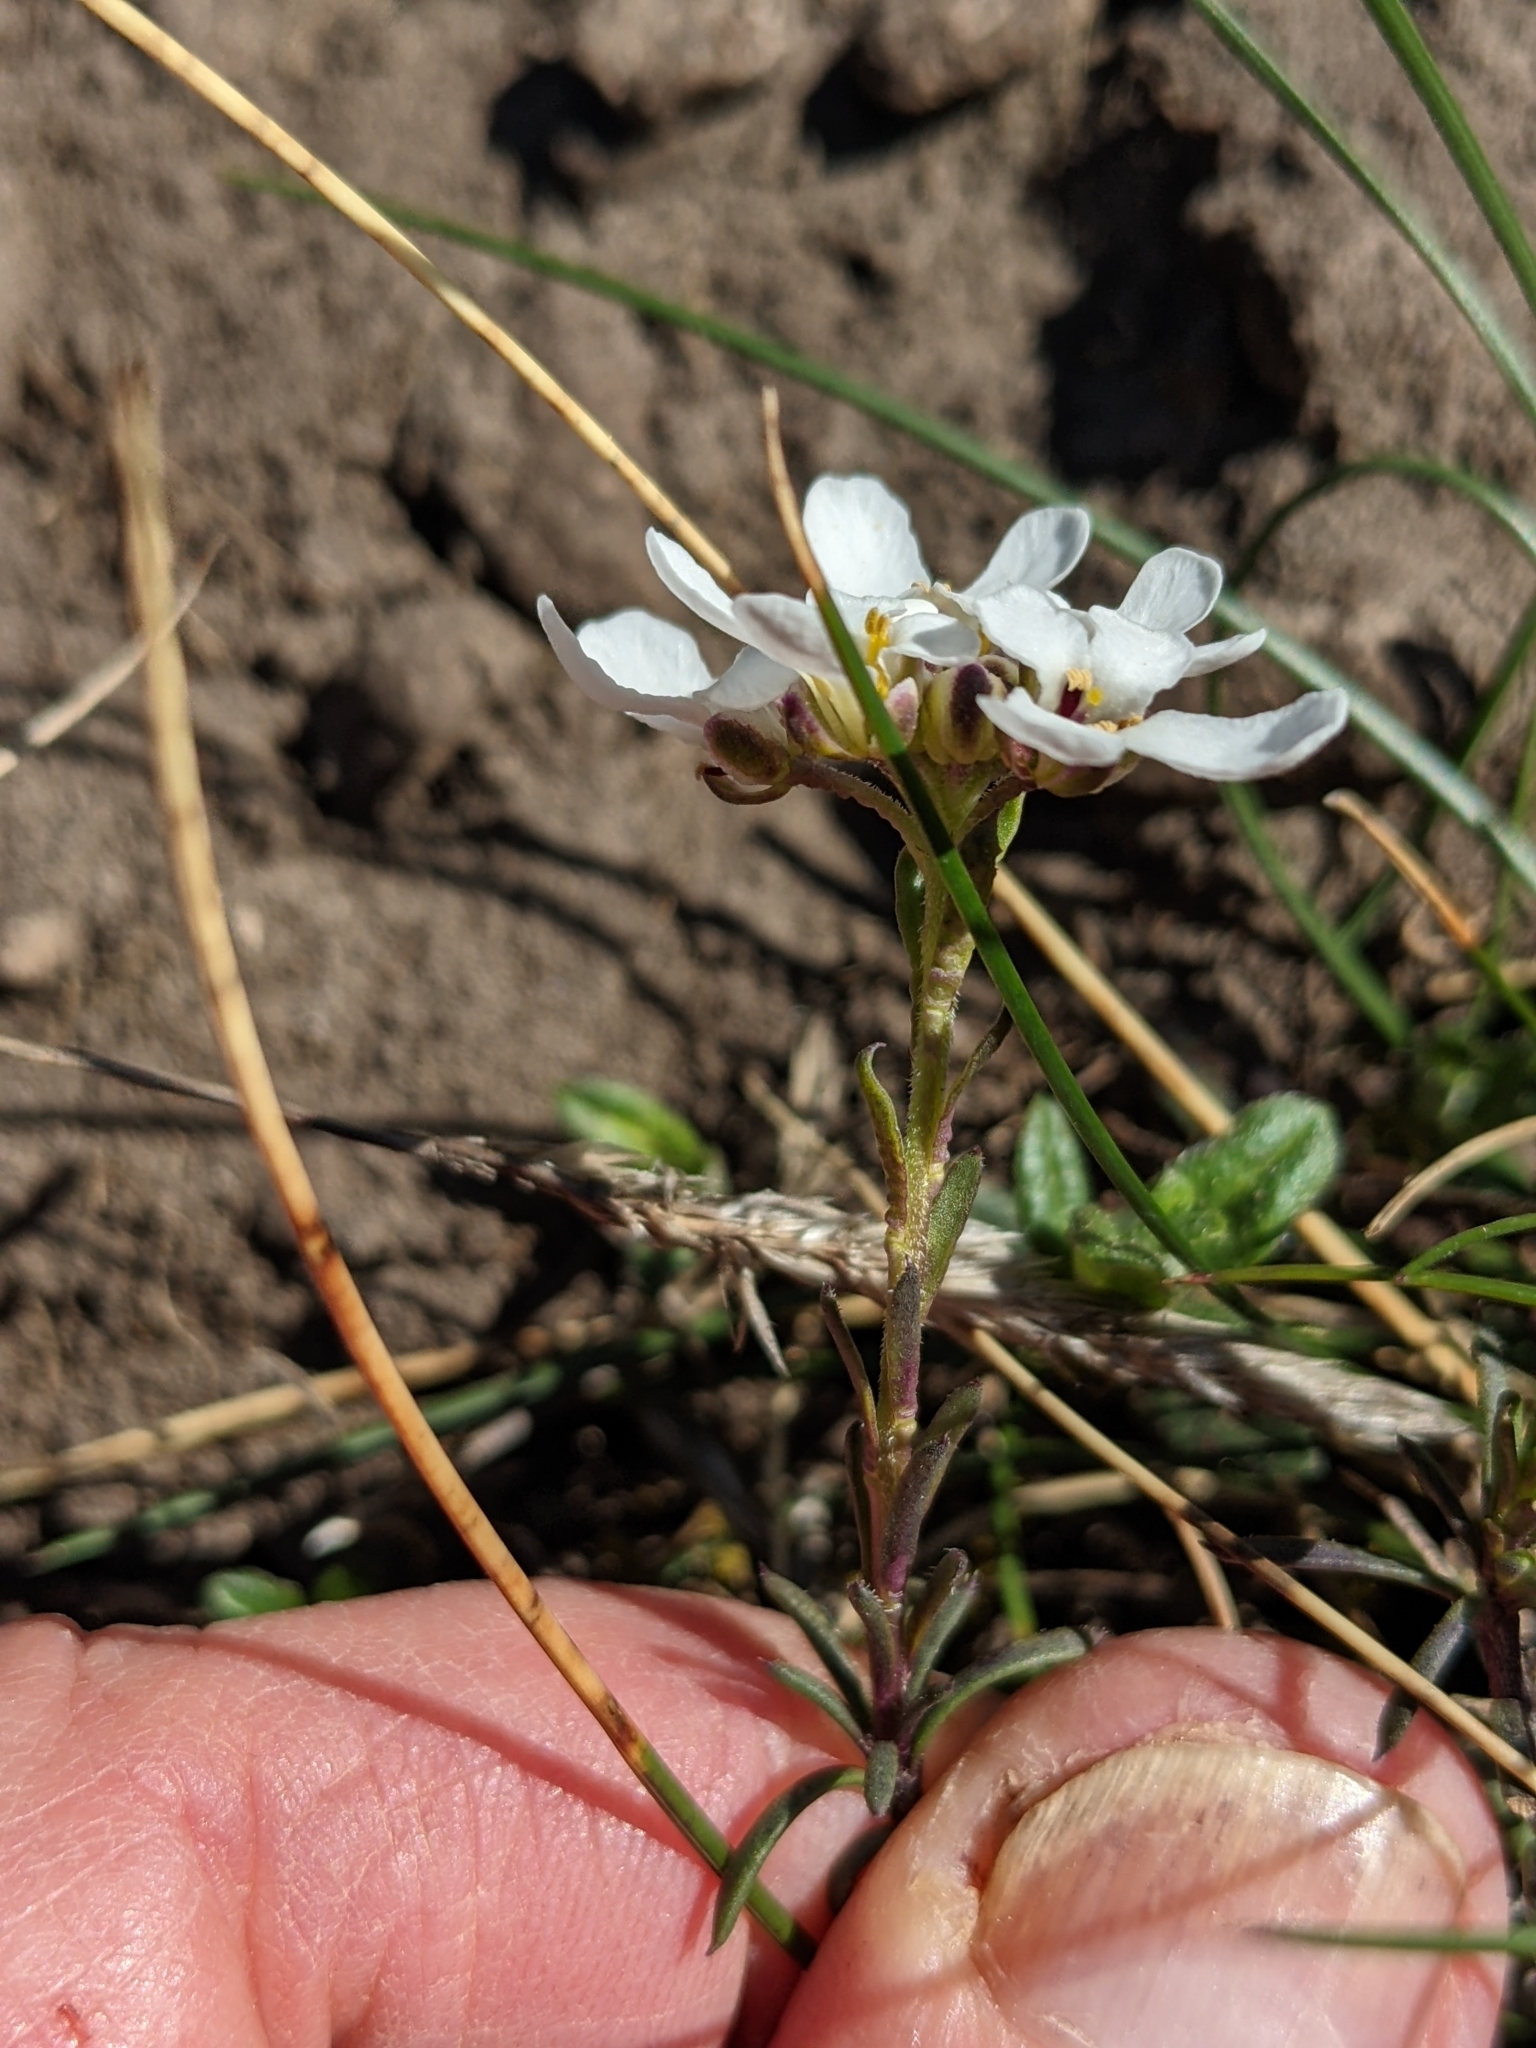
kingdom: Plantae
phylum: Tracheophyta
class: Magnoliopsida
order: Brassicales
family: Brassicaceae
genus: Iberis
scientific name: Iberis saxatilis
